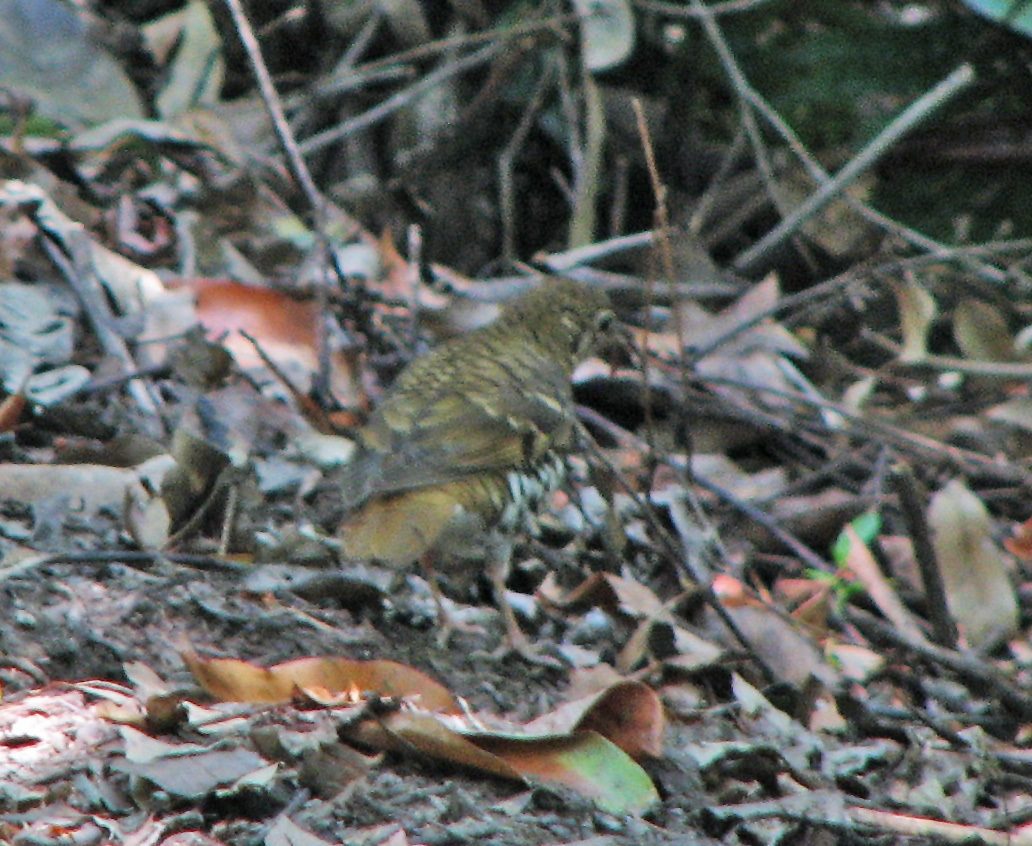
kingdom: Animalia
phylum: Chordata
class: Aves
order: Passeriformes
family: Turdidae
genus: Zoothera
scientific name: Zoothera heinei
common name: Russet-tailed thrush
